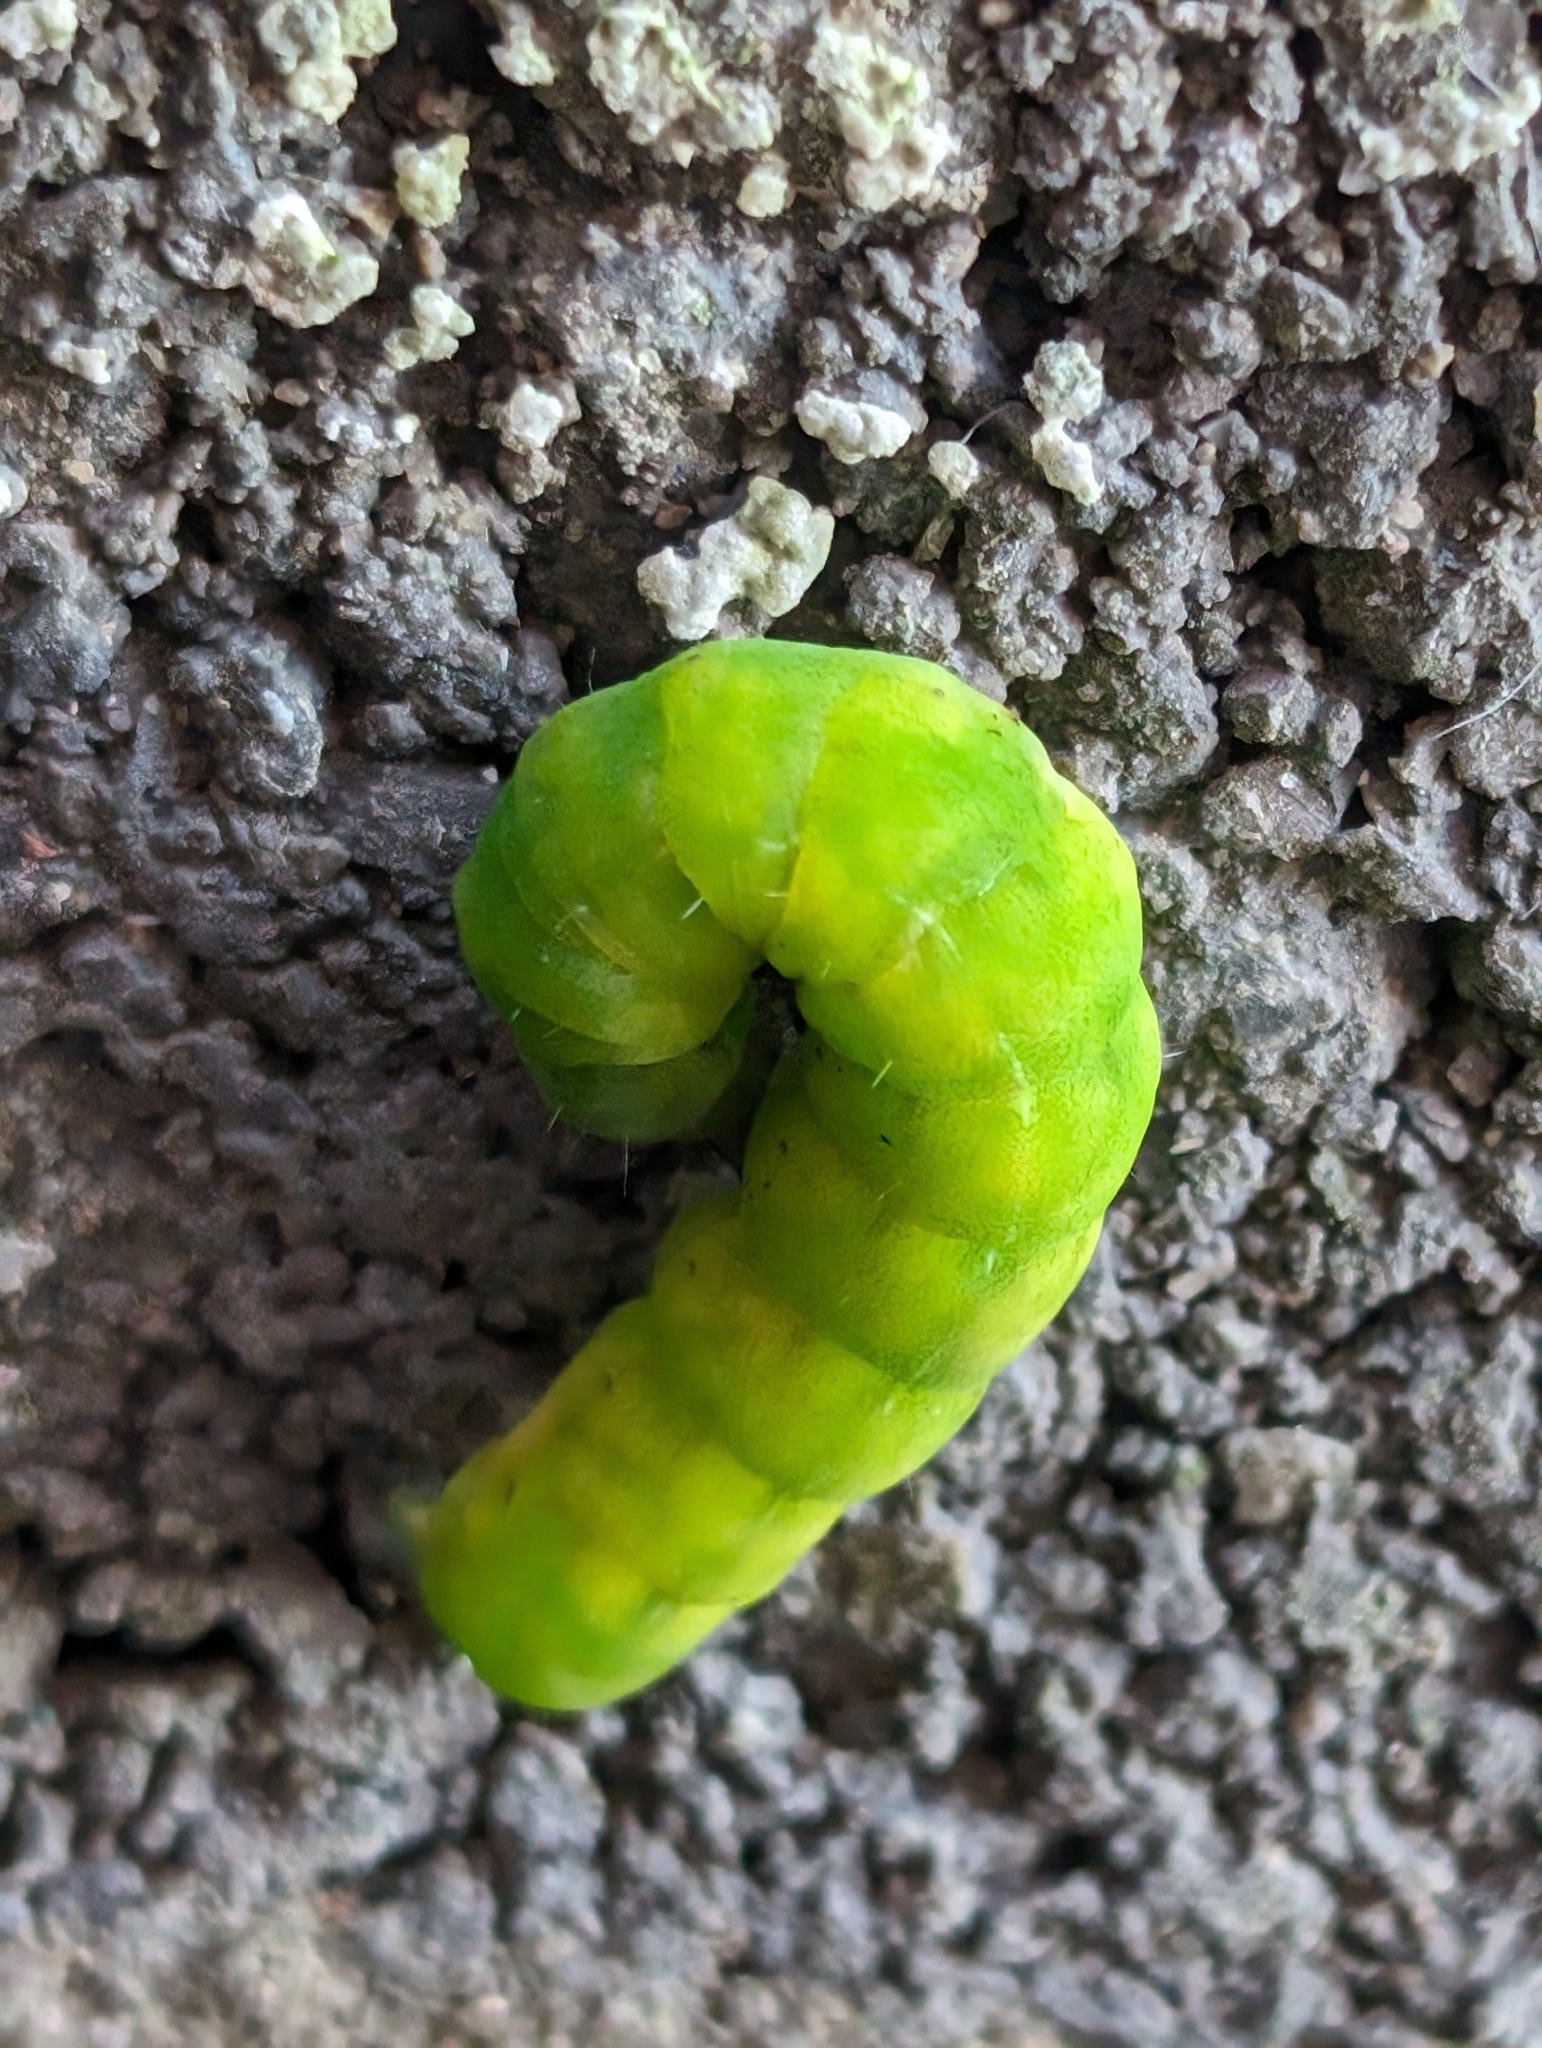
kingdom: Animalia
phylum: Arthropoda
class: Insecta
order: Lepidoptera
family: Noctuidae
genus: Phlogophora
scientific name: Phlogophora meticulosa
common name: Angle shades
